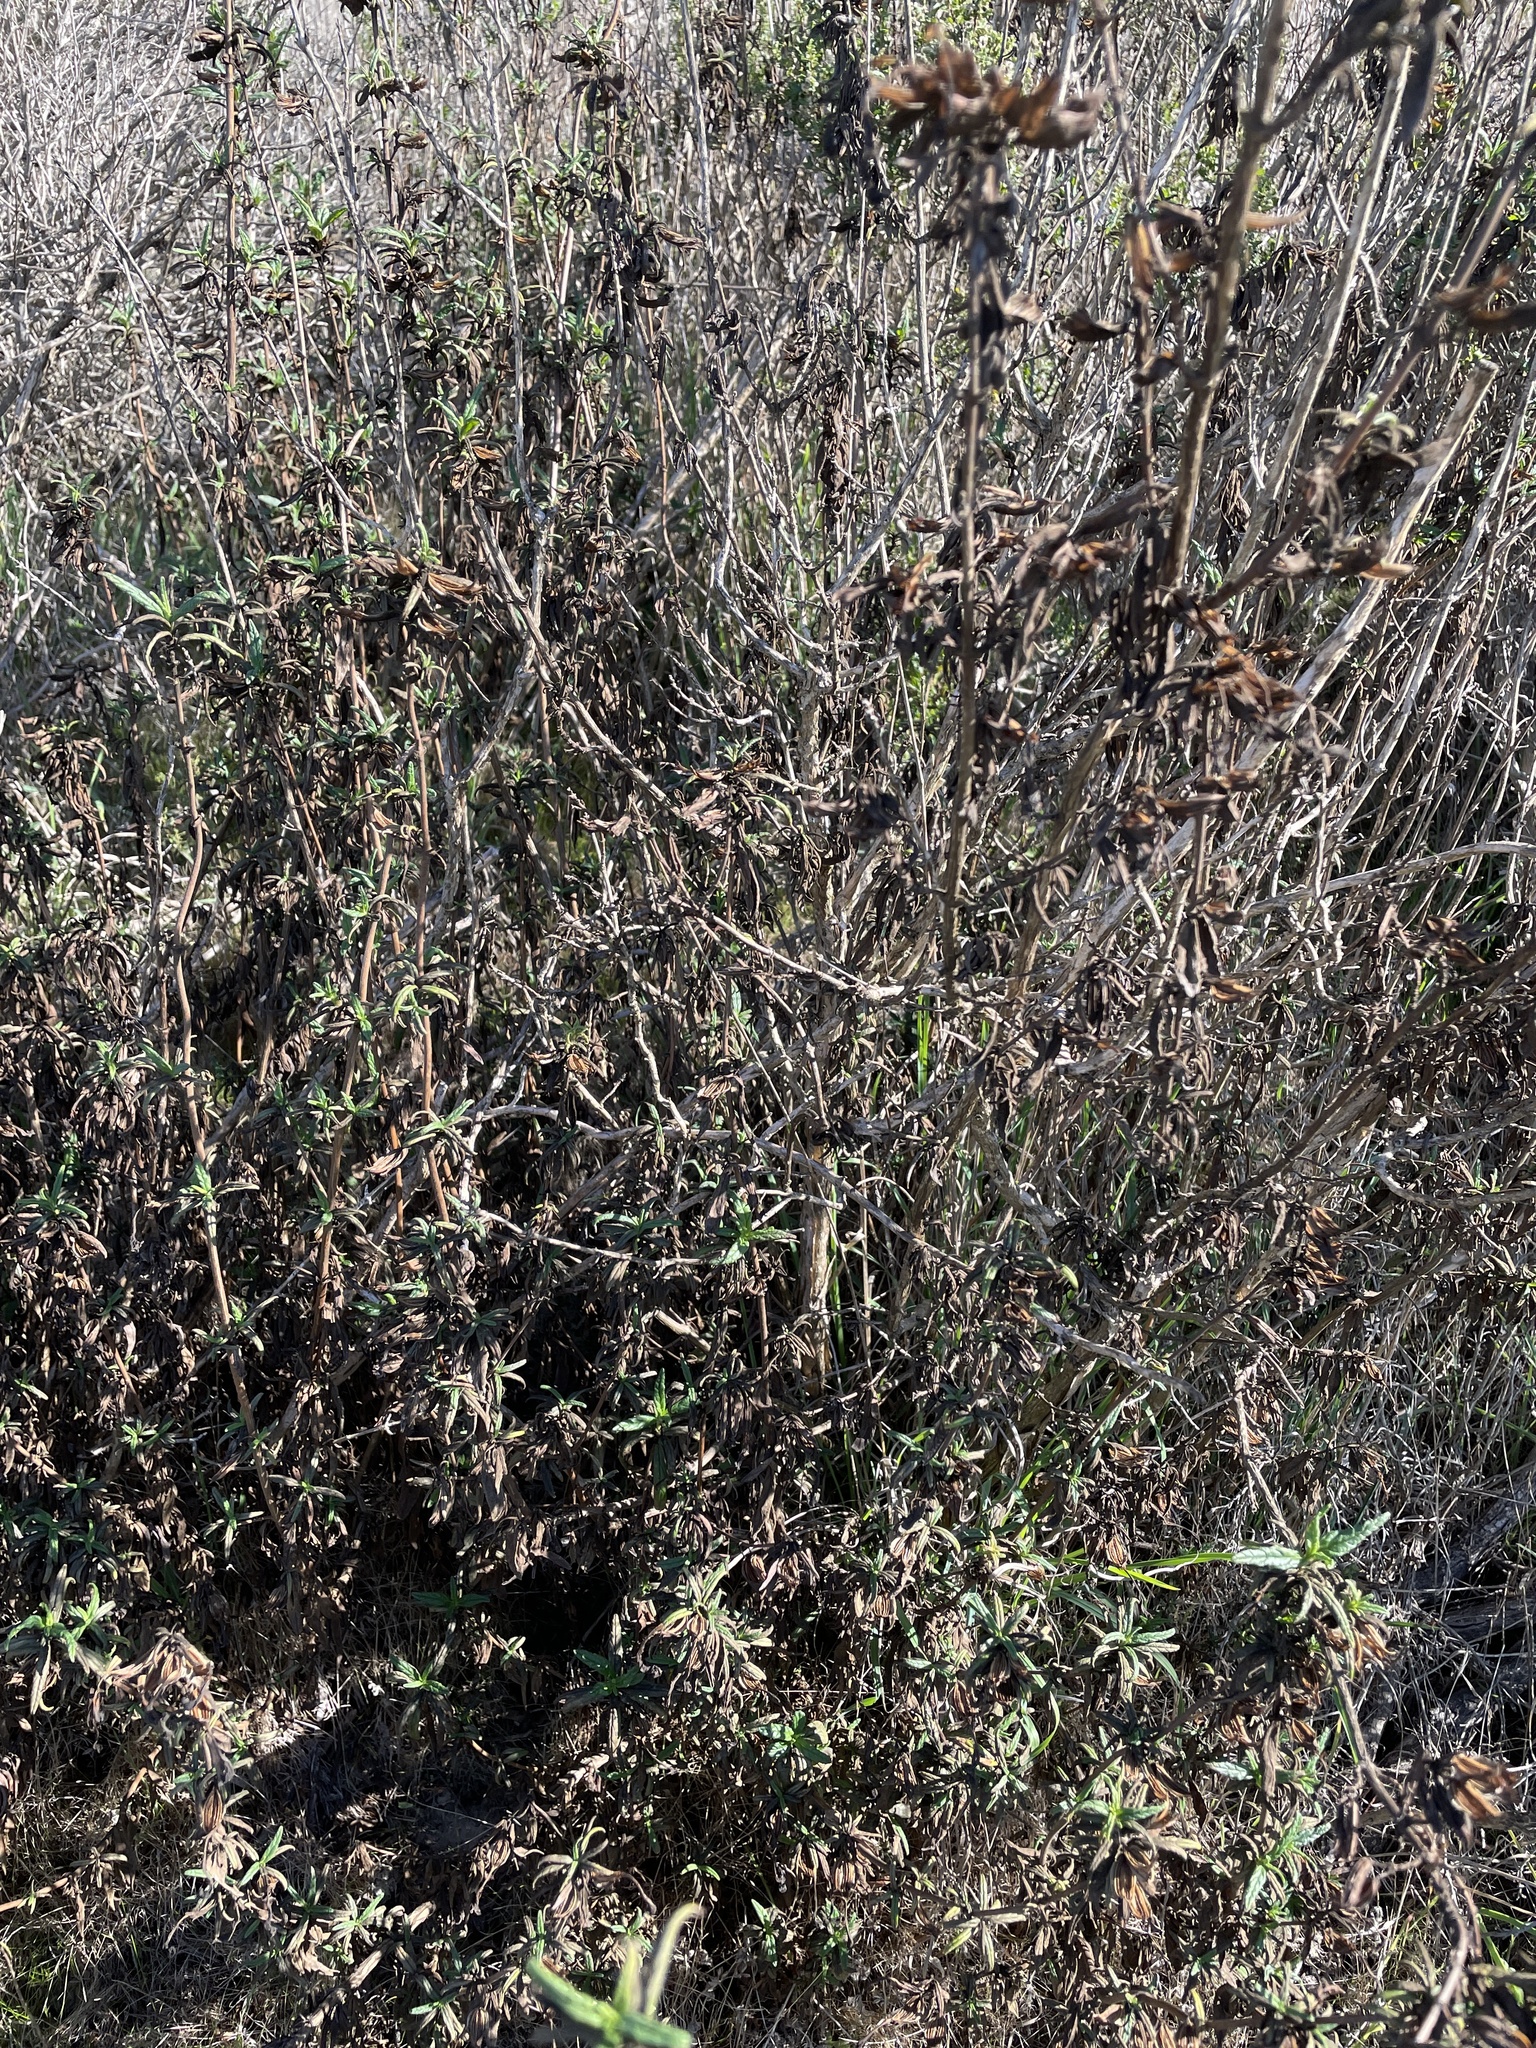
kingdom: Plantae
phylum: Tracheophyta
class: Magnoliopsida
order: Lamiales
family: Phrymaceae
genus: Diplacus
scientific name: Diplacus aurantiacus
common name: Bush monkey-flower
